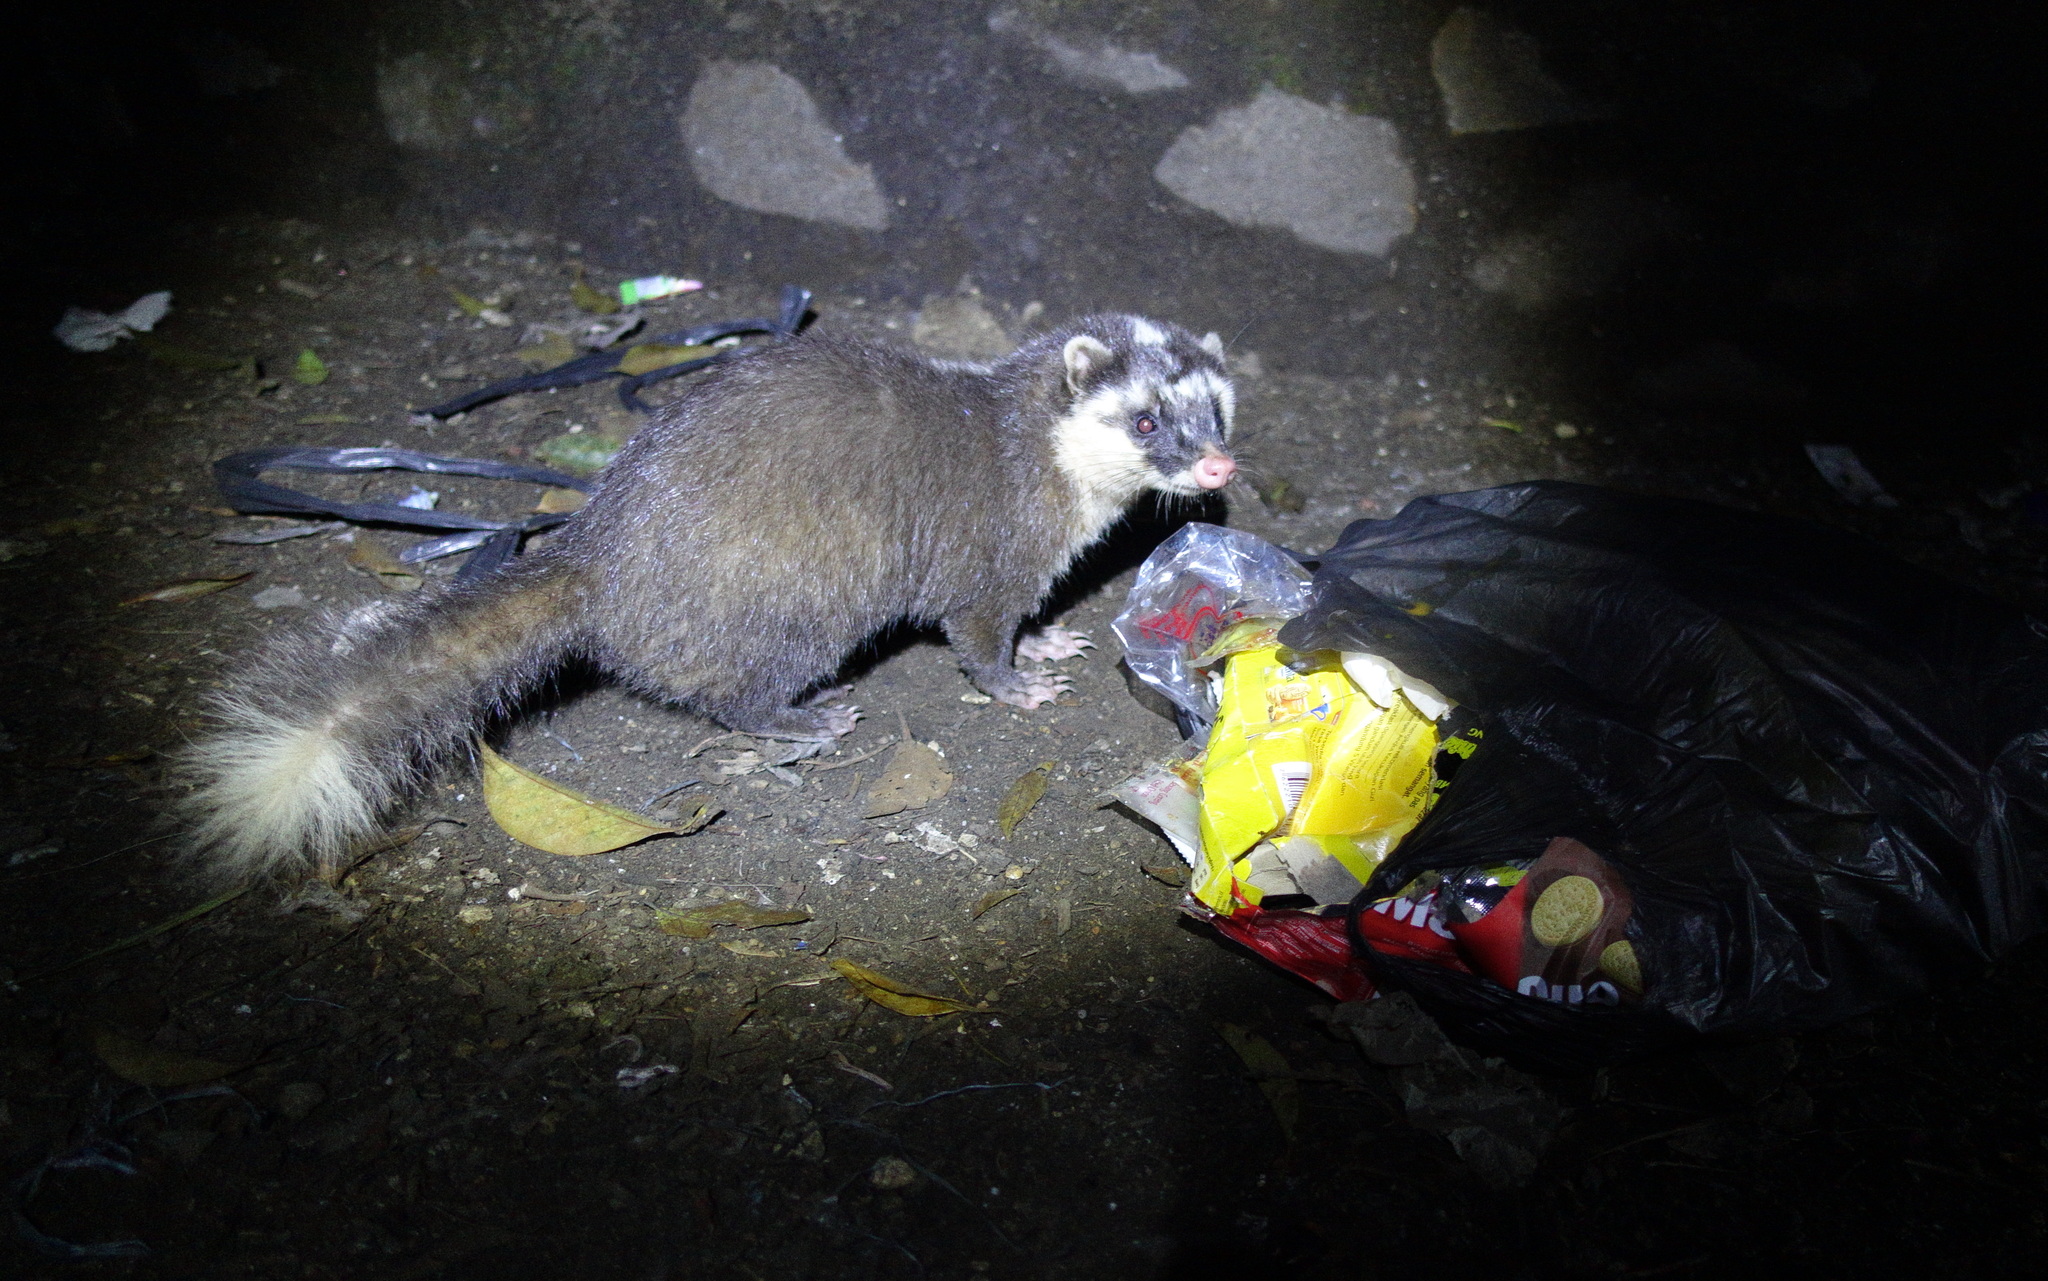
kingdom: Animalia
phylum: Chordata
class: Mammalia
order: Carnivora
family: Mustelidae
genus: Melogale
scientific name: Melogale orientalis
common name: Javan ferret-badger
